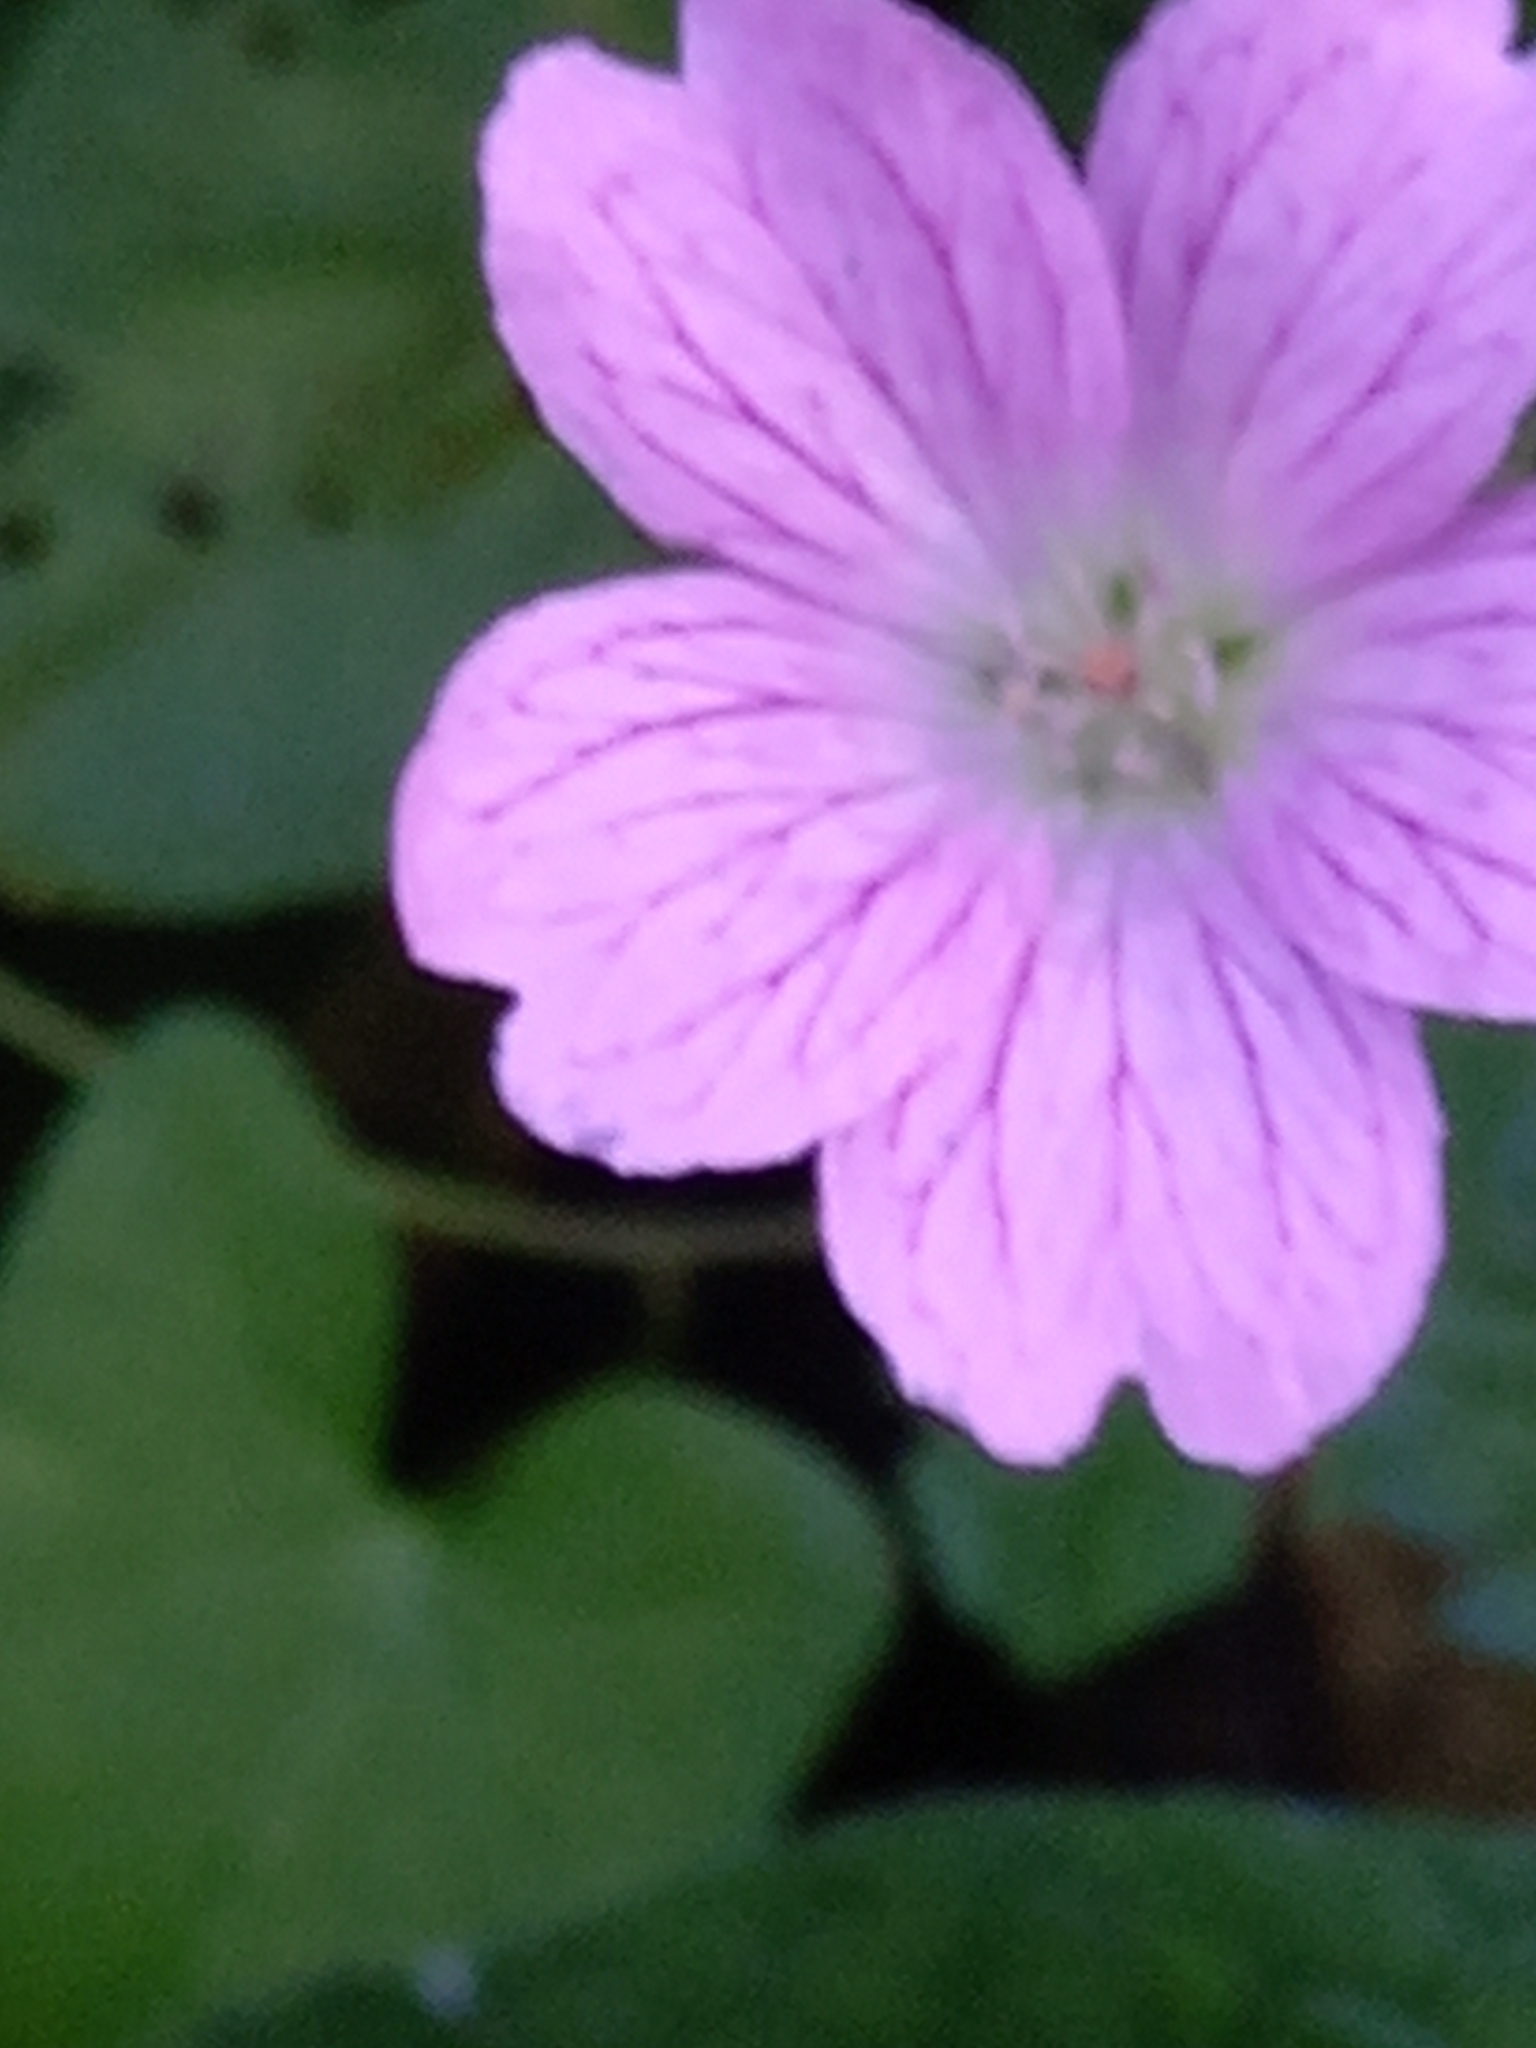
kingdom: Plantae
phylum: Tracheophyta
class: Magnoliopsida
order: Geraniales
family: Geraniaceae
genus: Geranium
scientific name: Geranium oxonianum
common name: Druce's crane's-bill
